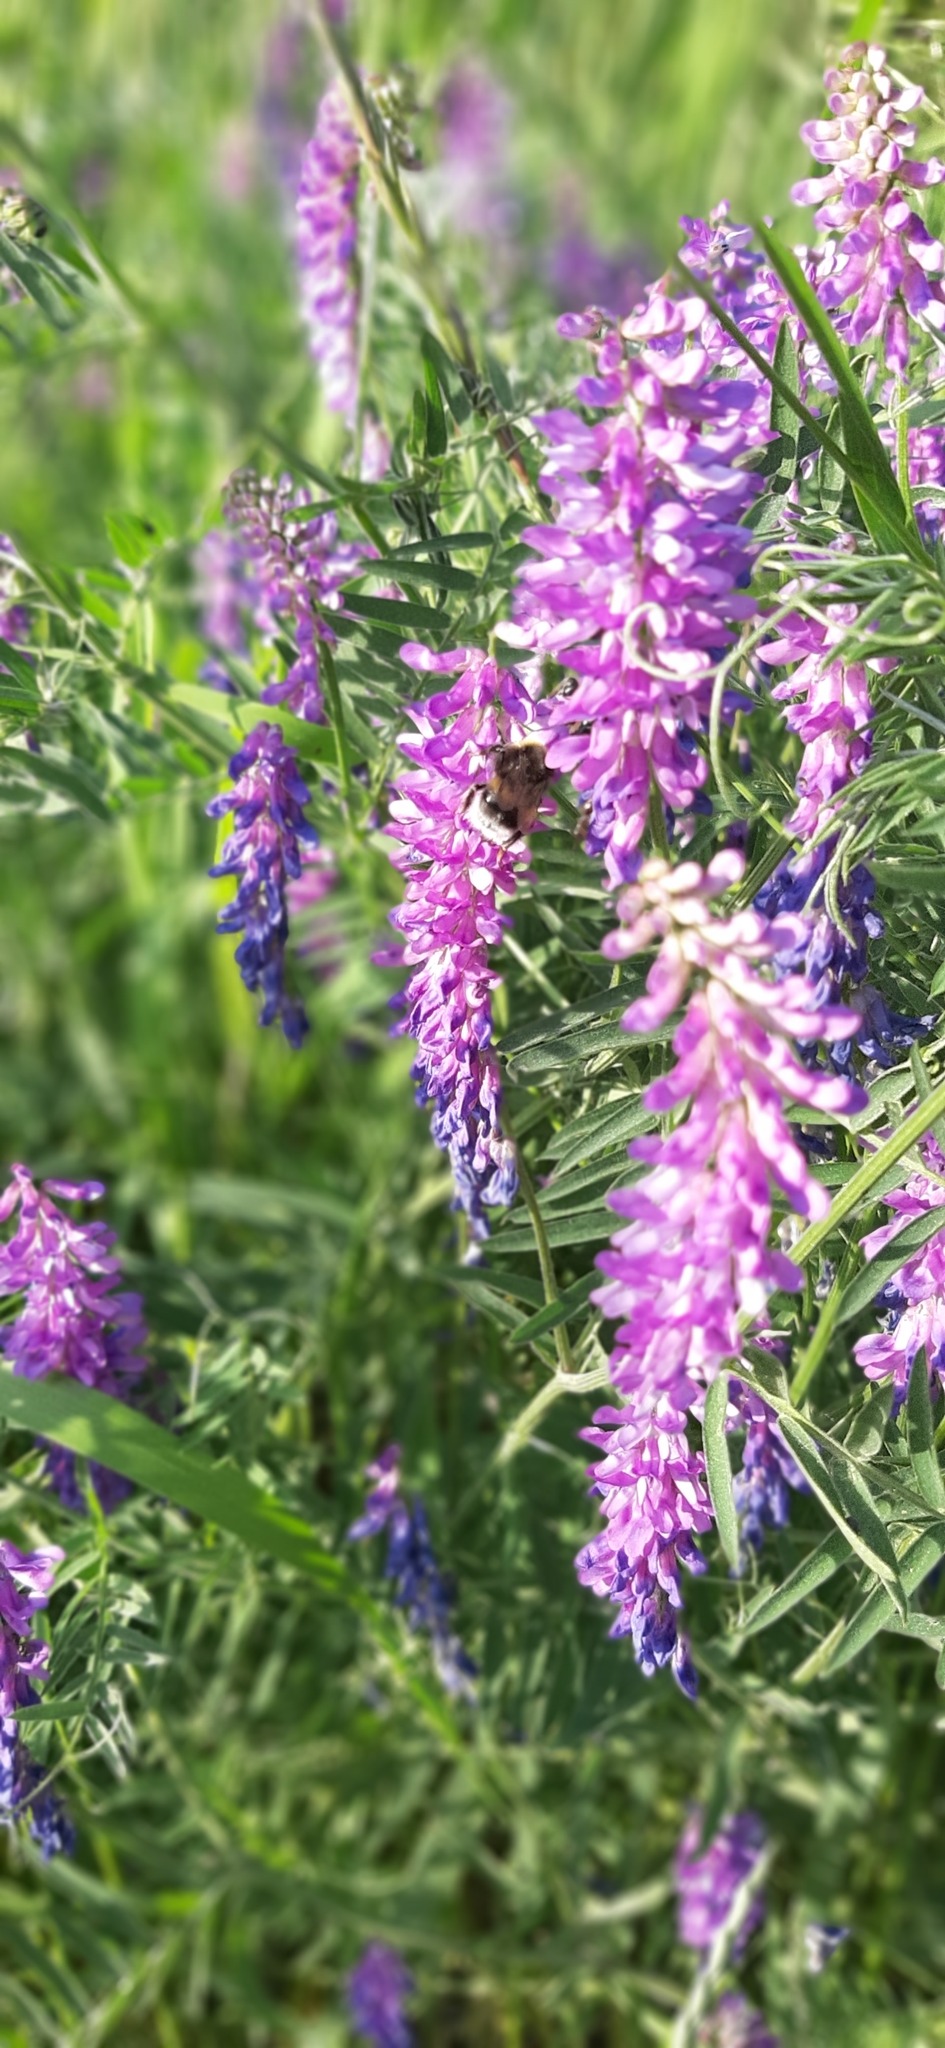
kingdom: Plantae
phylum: Tracheophyta
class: Magnoliopsida
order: Fabales
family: Fabaceae
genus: Vicia
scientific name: Vicia cracca
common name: Bird vetch
